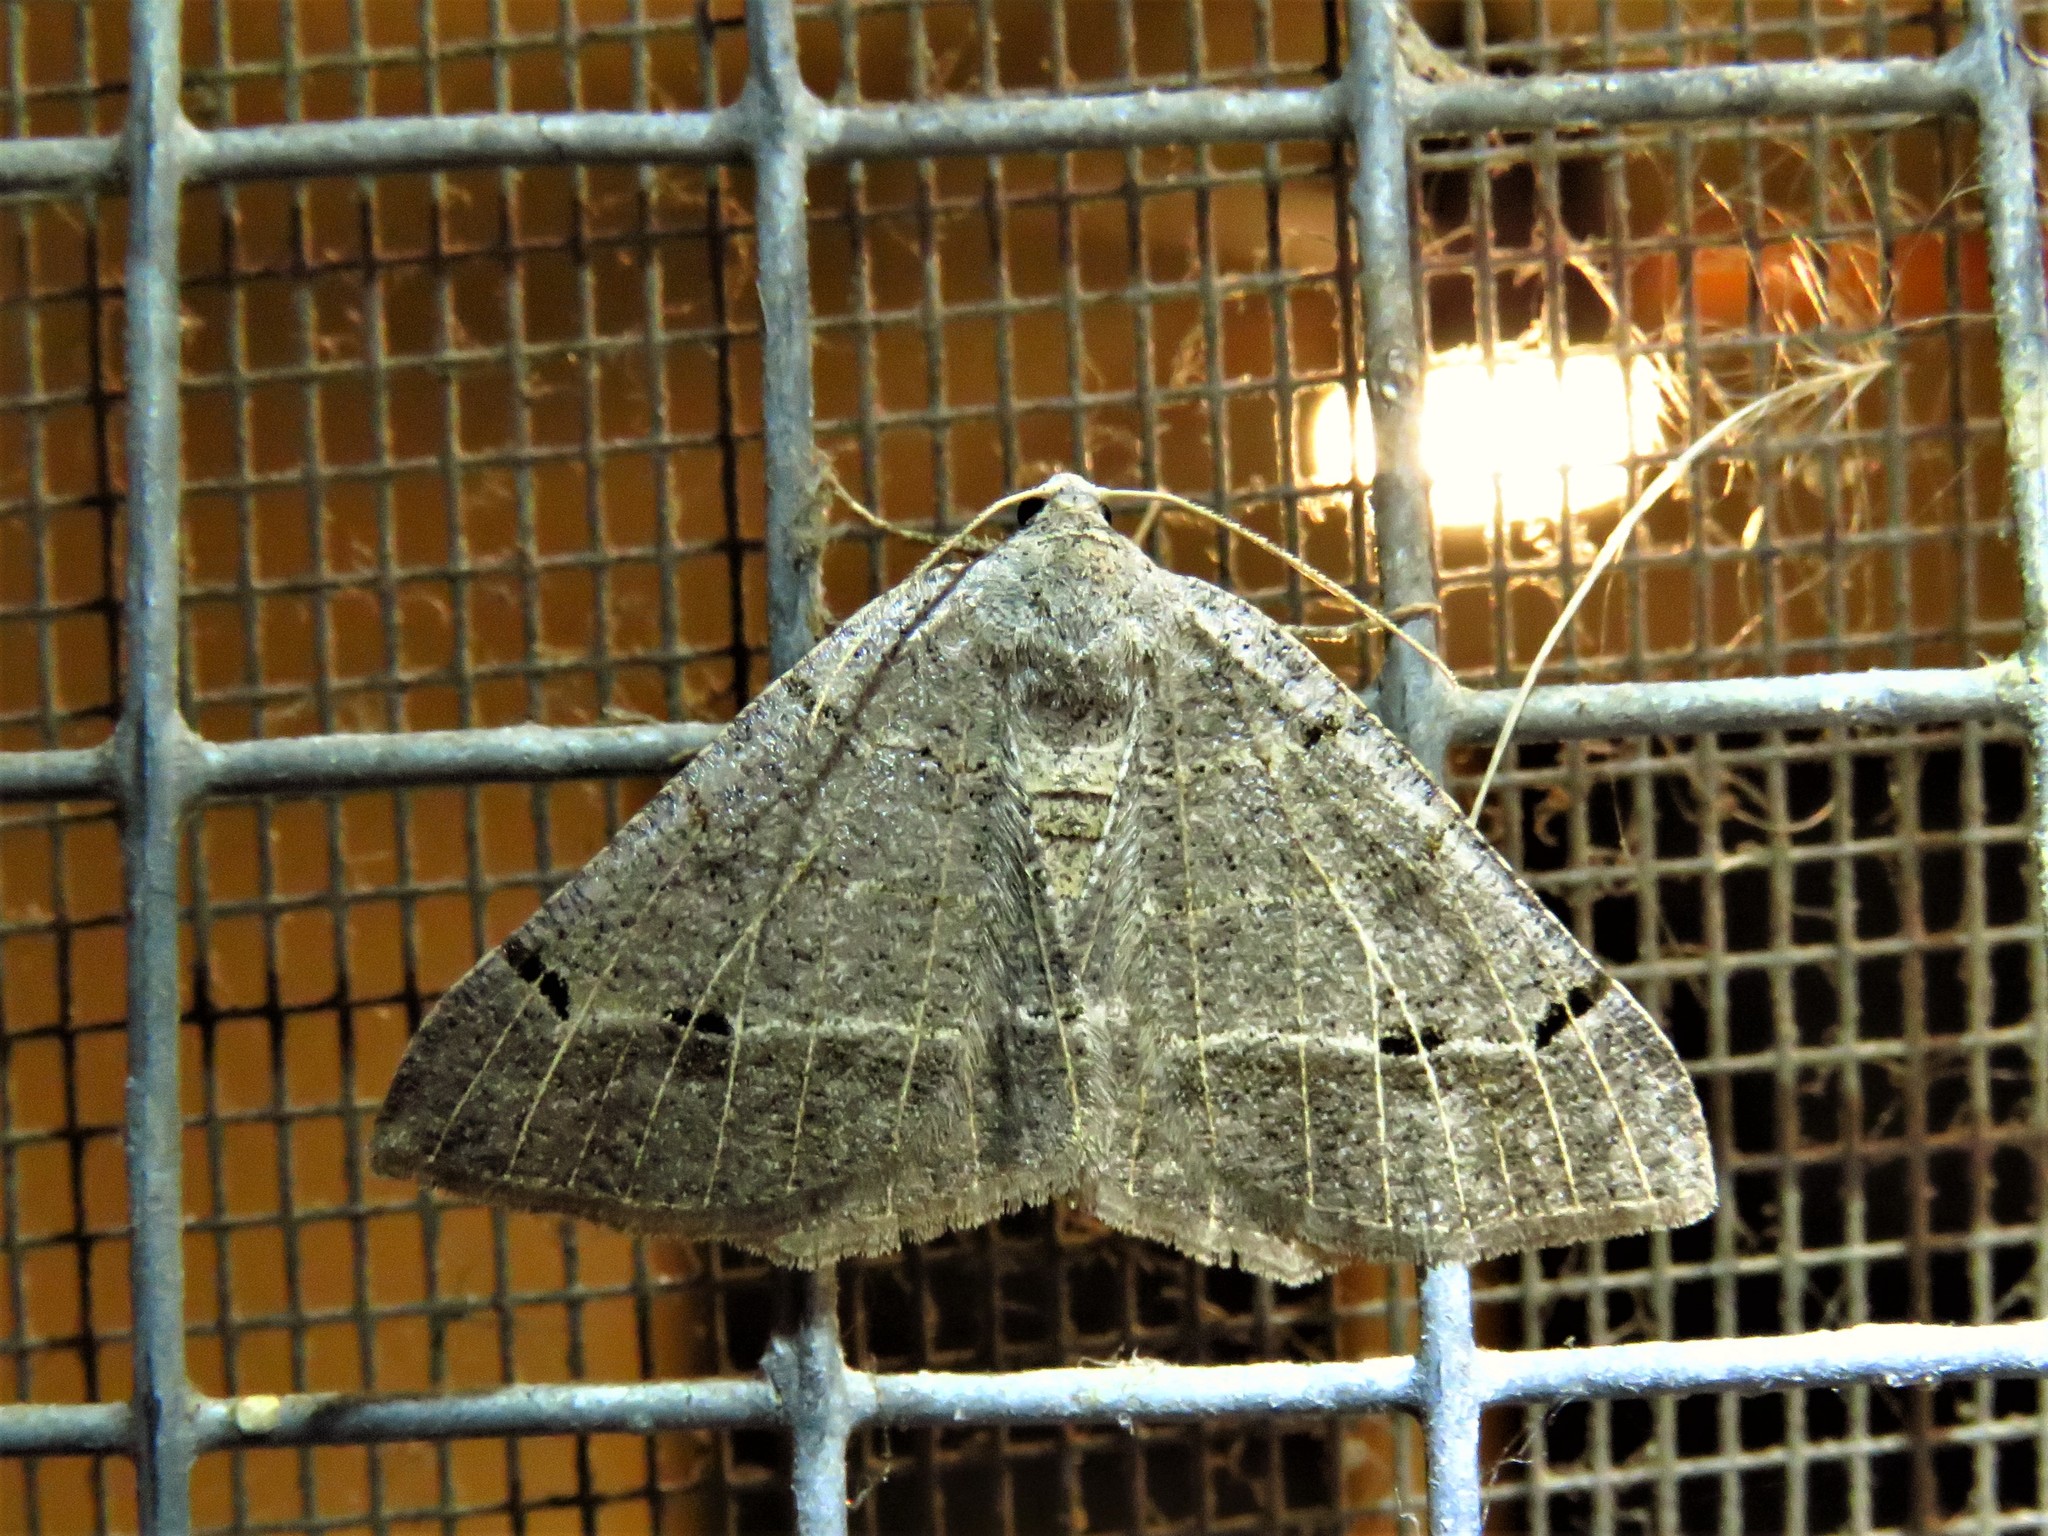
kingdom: Animalia
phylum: Arthropoda
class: Insecta
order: Lepidoptera
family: Geometridae
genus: Isturgia
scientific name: Isturgia dislocaria
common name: Pale-viened enconista
